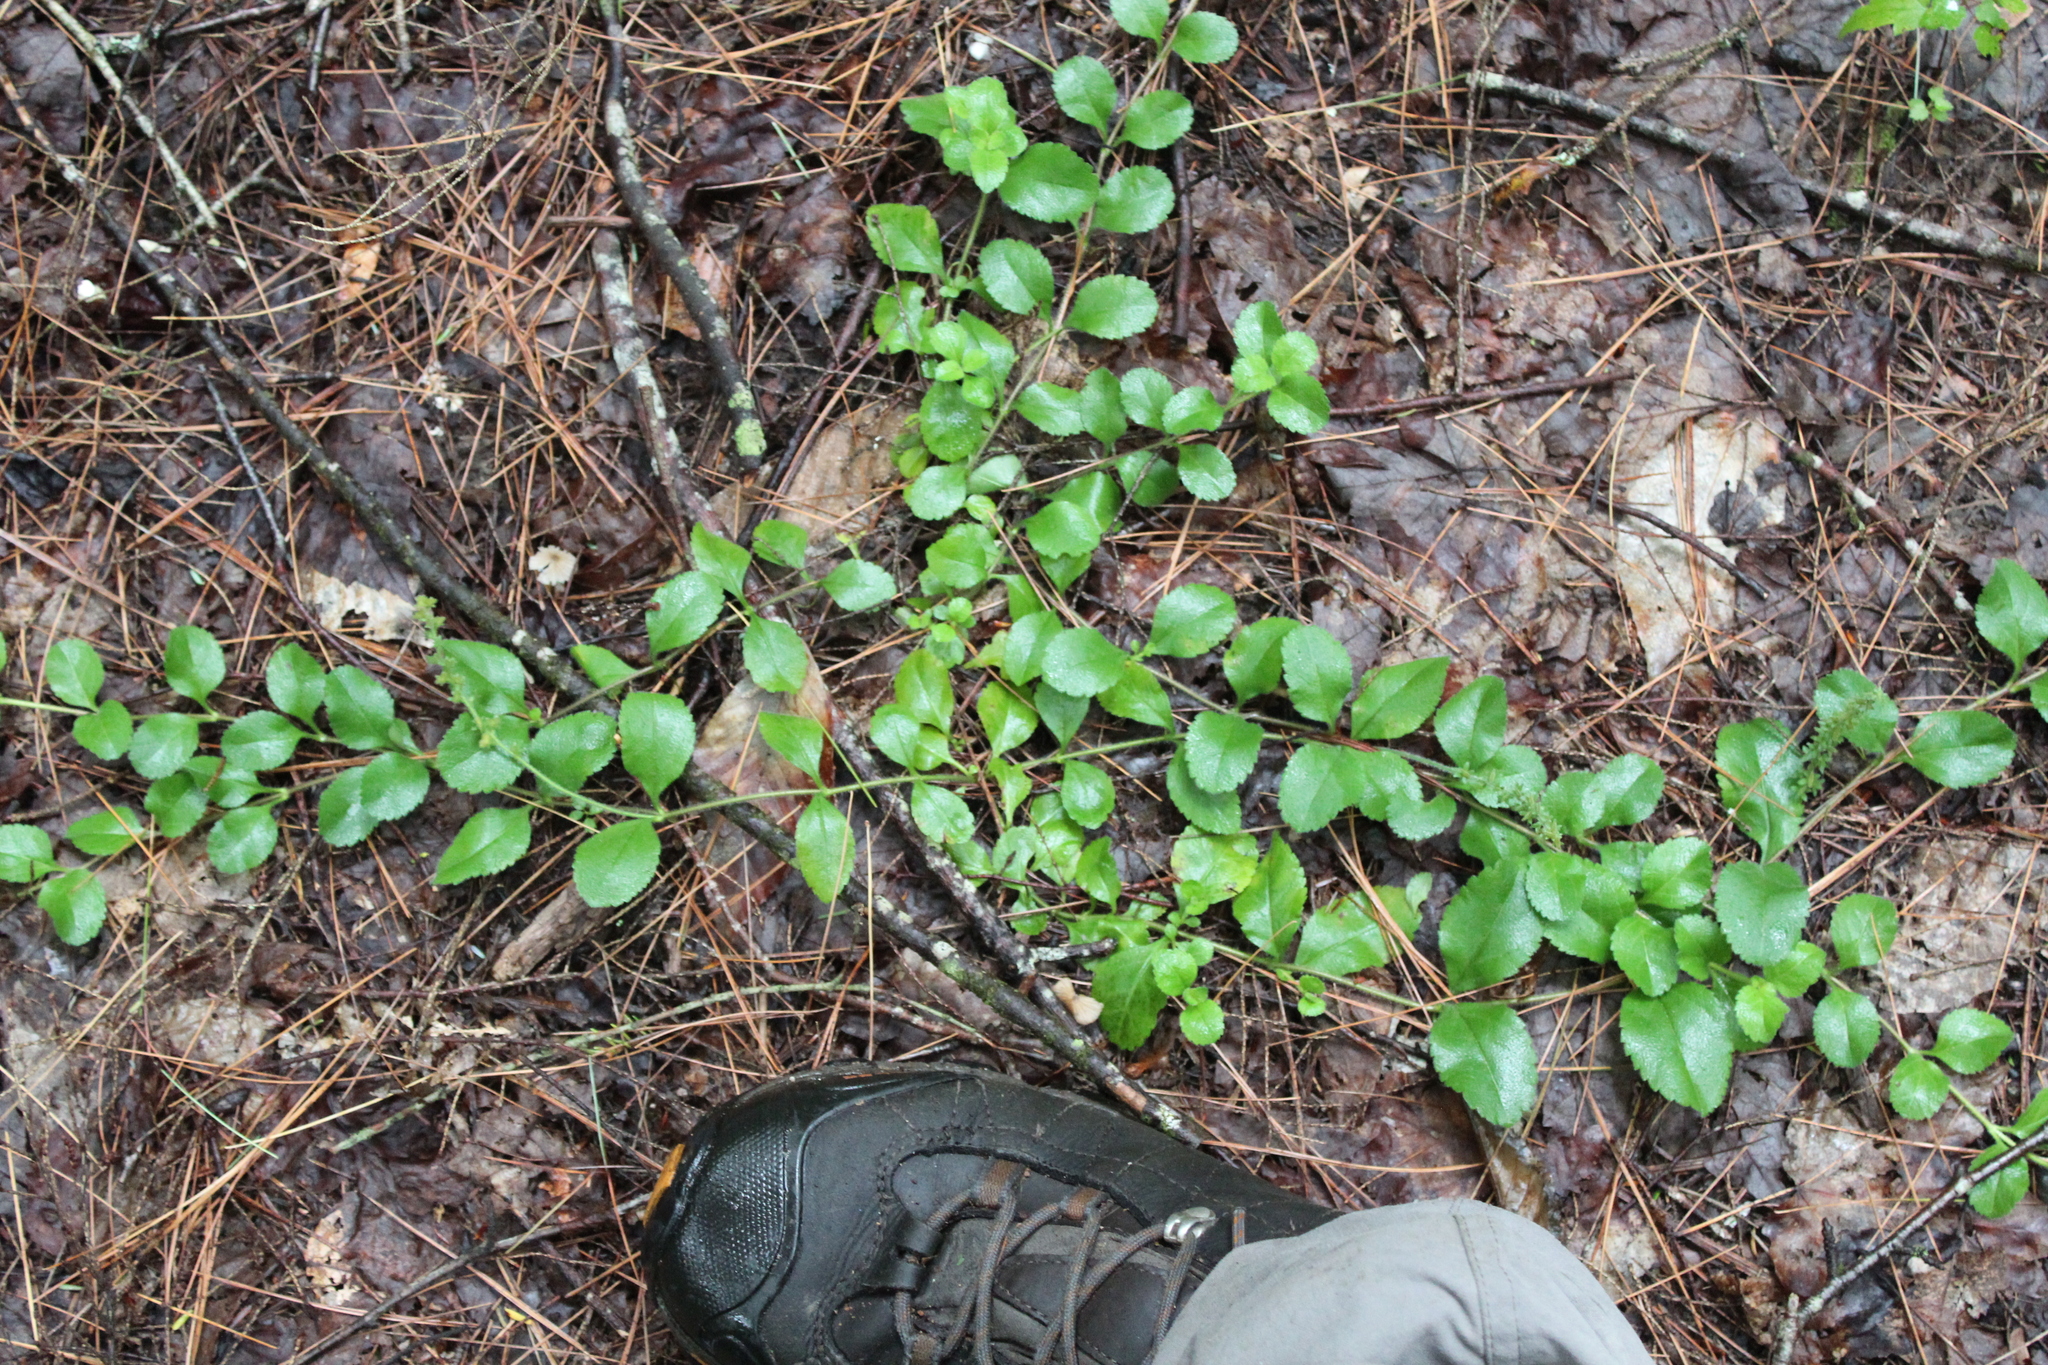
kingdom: Plantae
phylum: Tracheophyta
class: Magnoliopsida
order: Lamiales
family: Plantaginaceae
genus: Veronica
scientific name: Veronica officinalis
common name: Common speedwell
